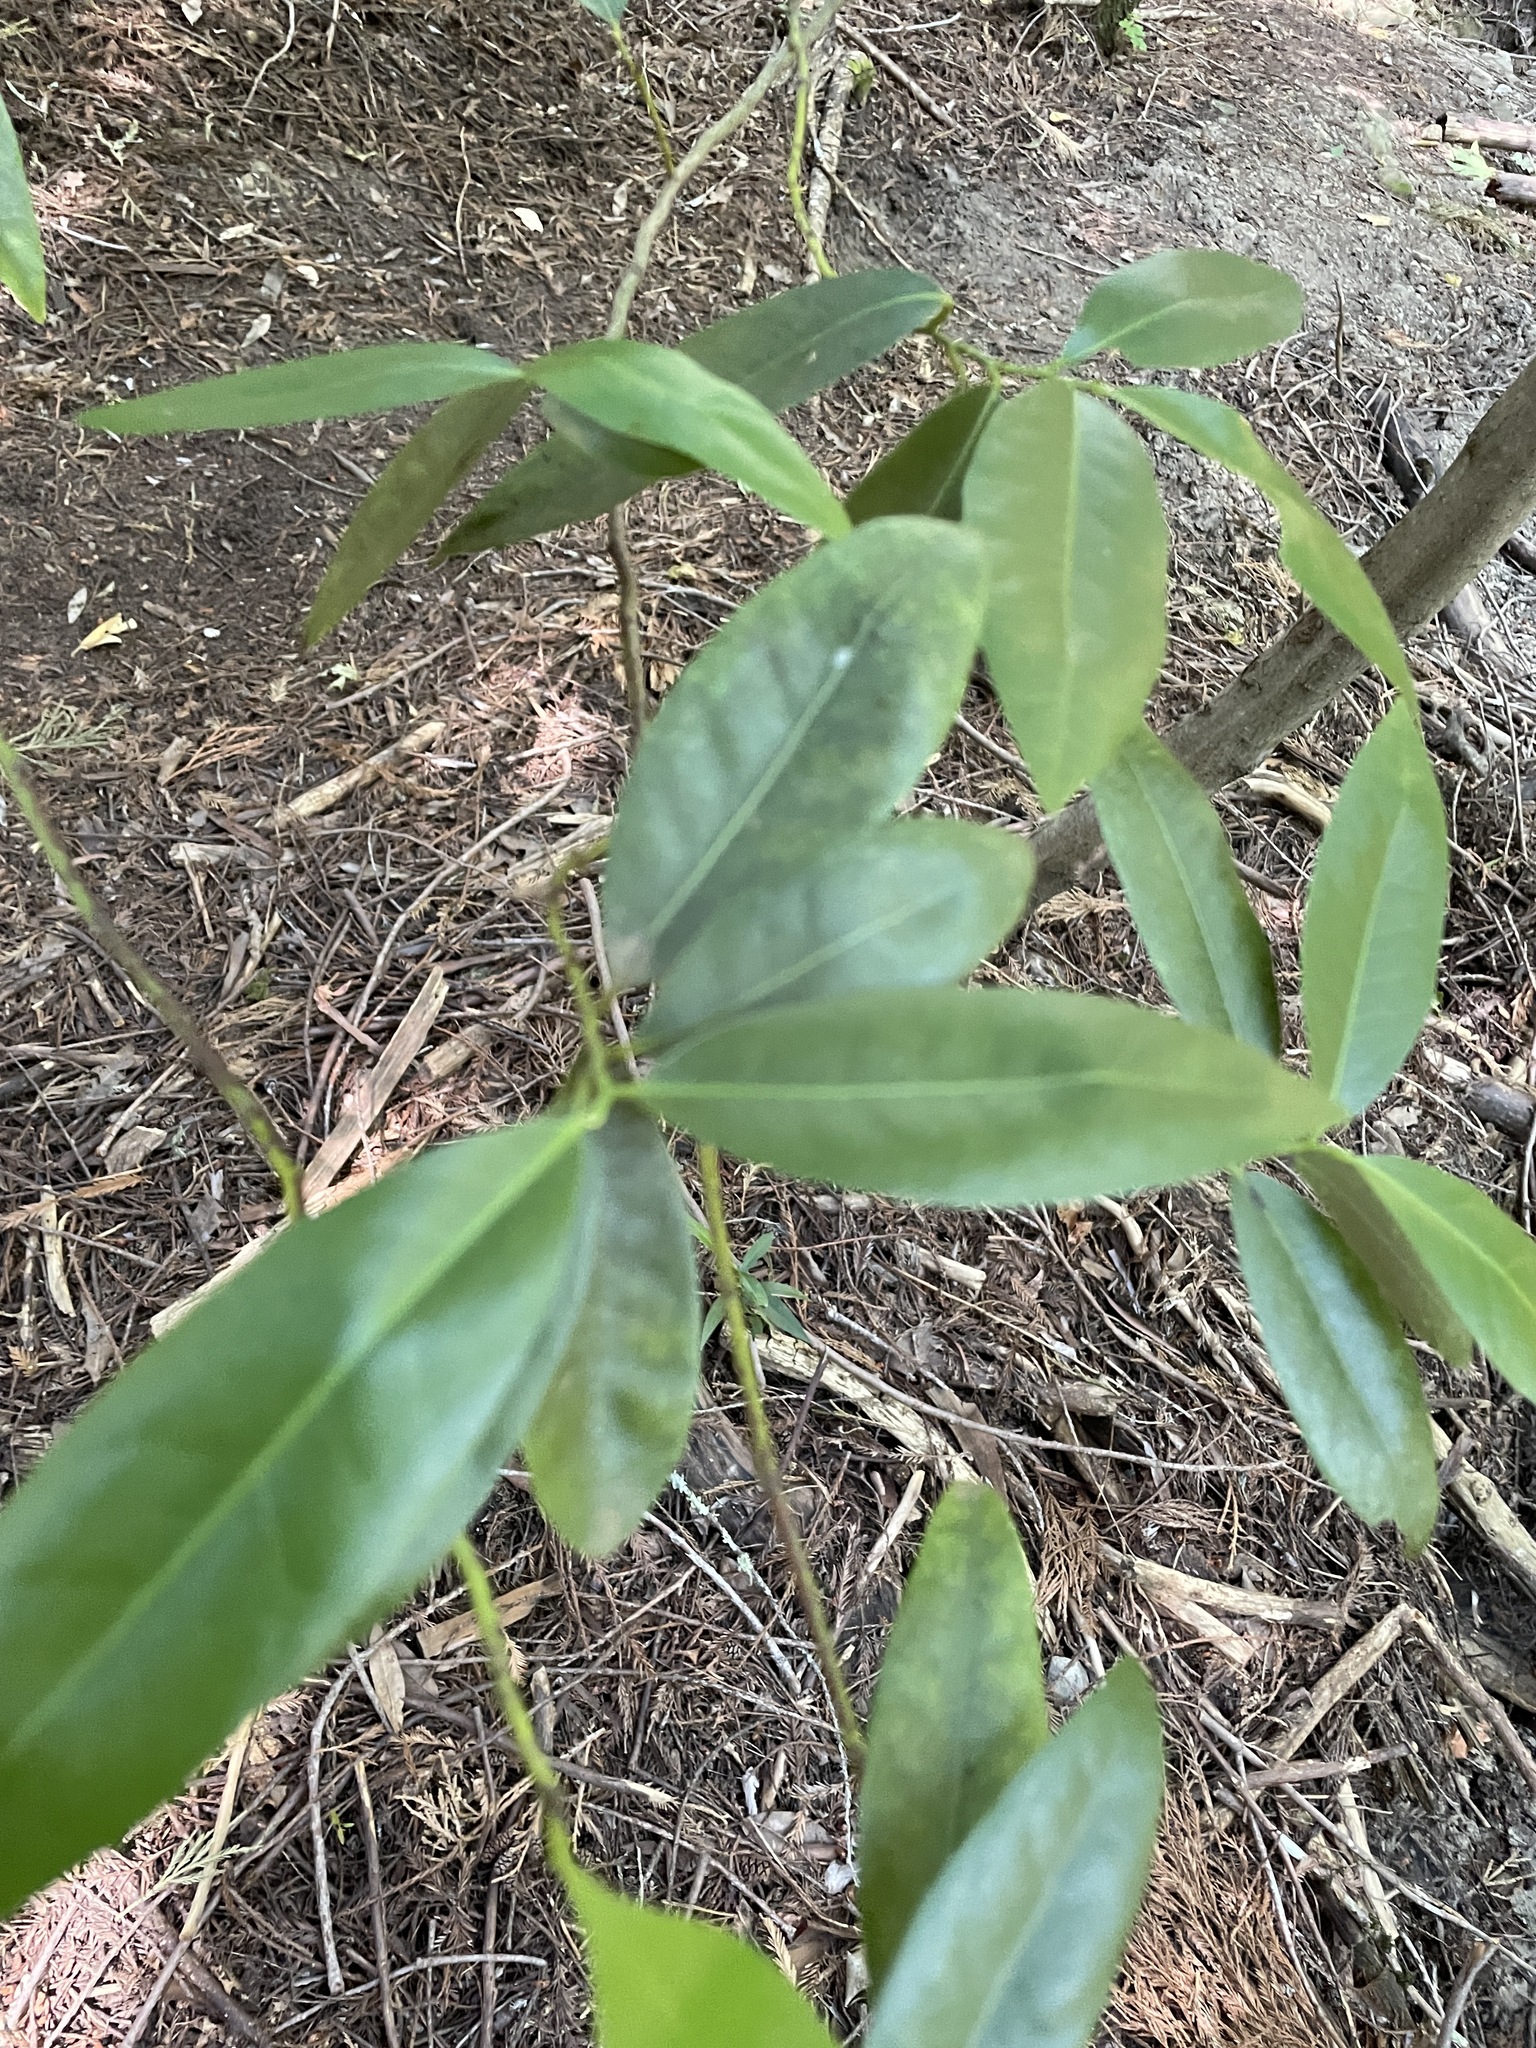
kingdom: Plantae
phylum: Tracheophyta
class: Magnoliopsida
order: Laurales
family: Lauraceae
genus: Umbellularia
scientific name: Umbellularia californica
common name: California bay
